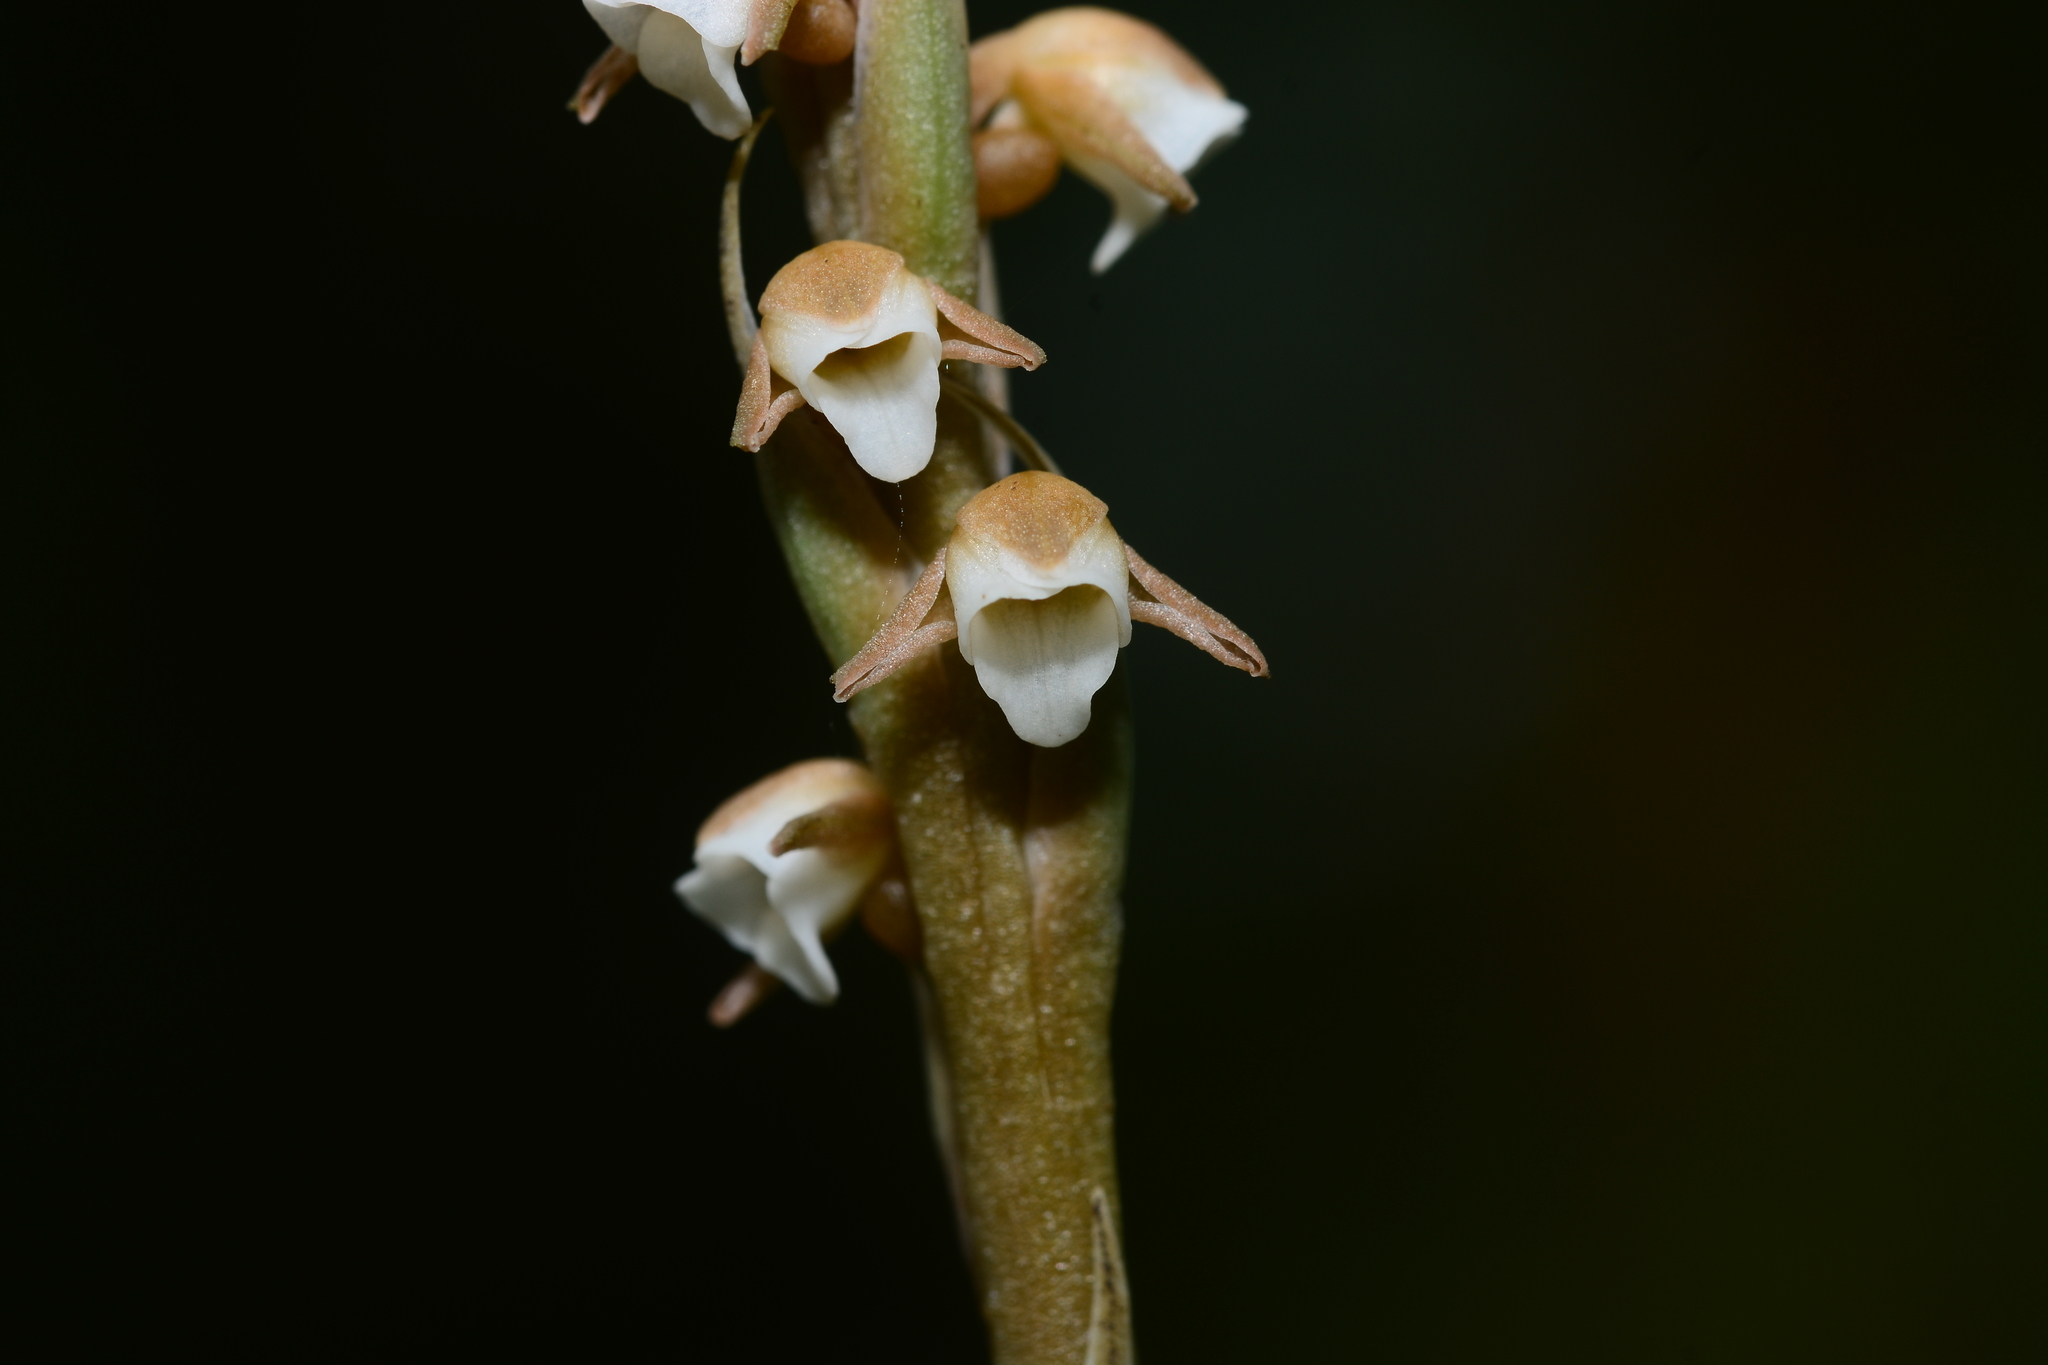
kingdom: Plantae
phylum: Tracheophyta
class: Liliopsida
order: Asparagales
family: Orchidaceae
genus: Peristylus
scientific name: Peristylus plantagineus
